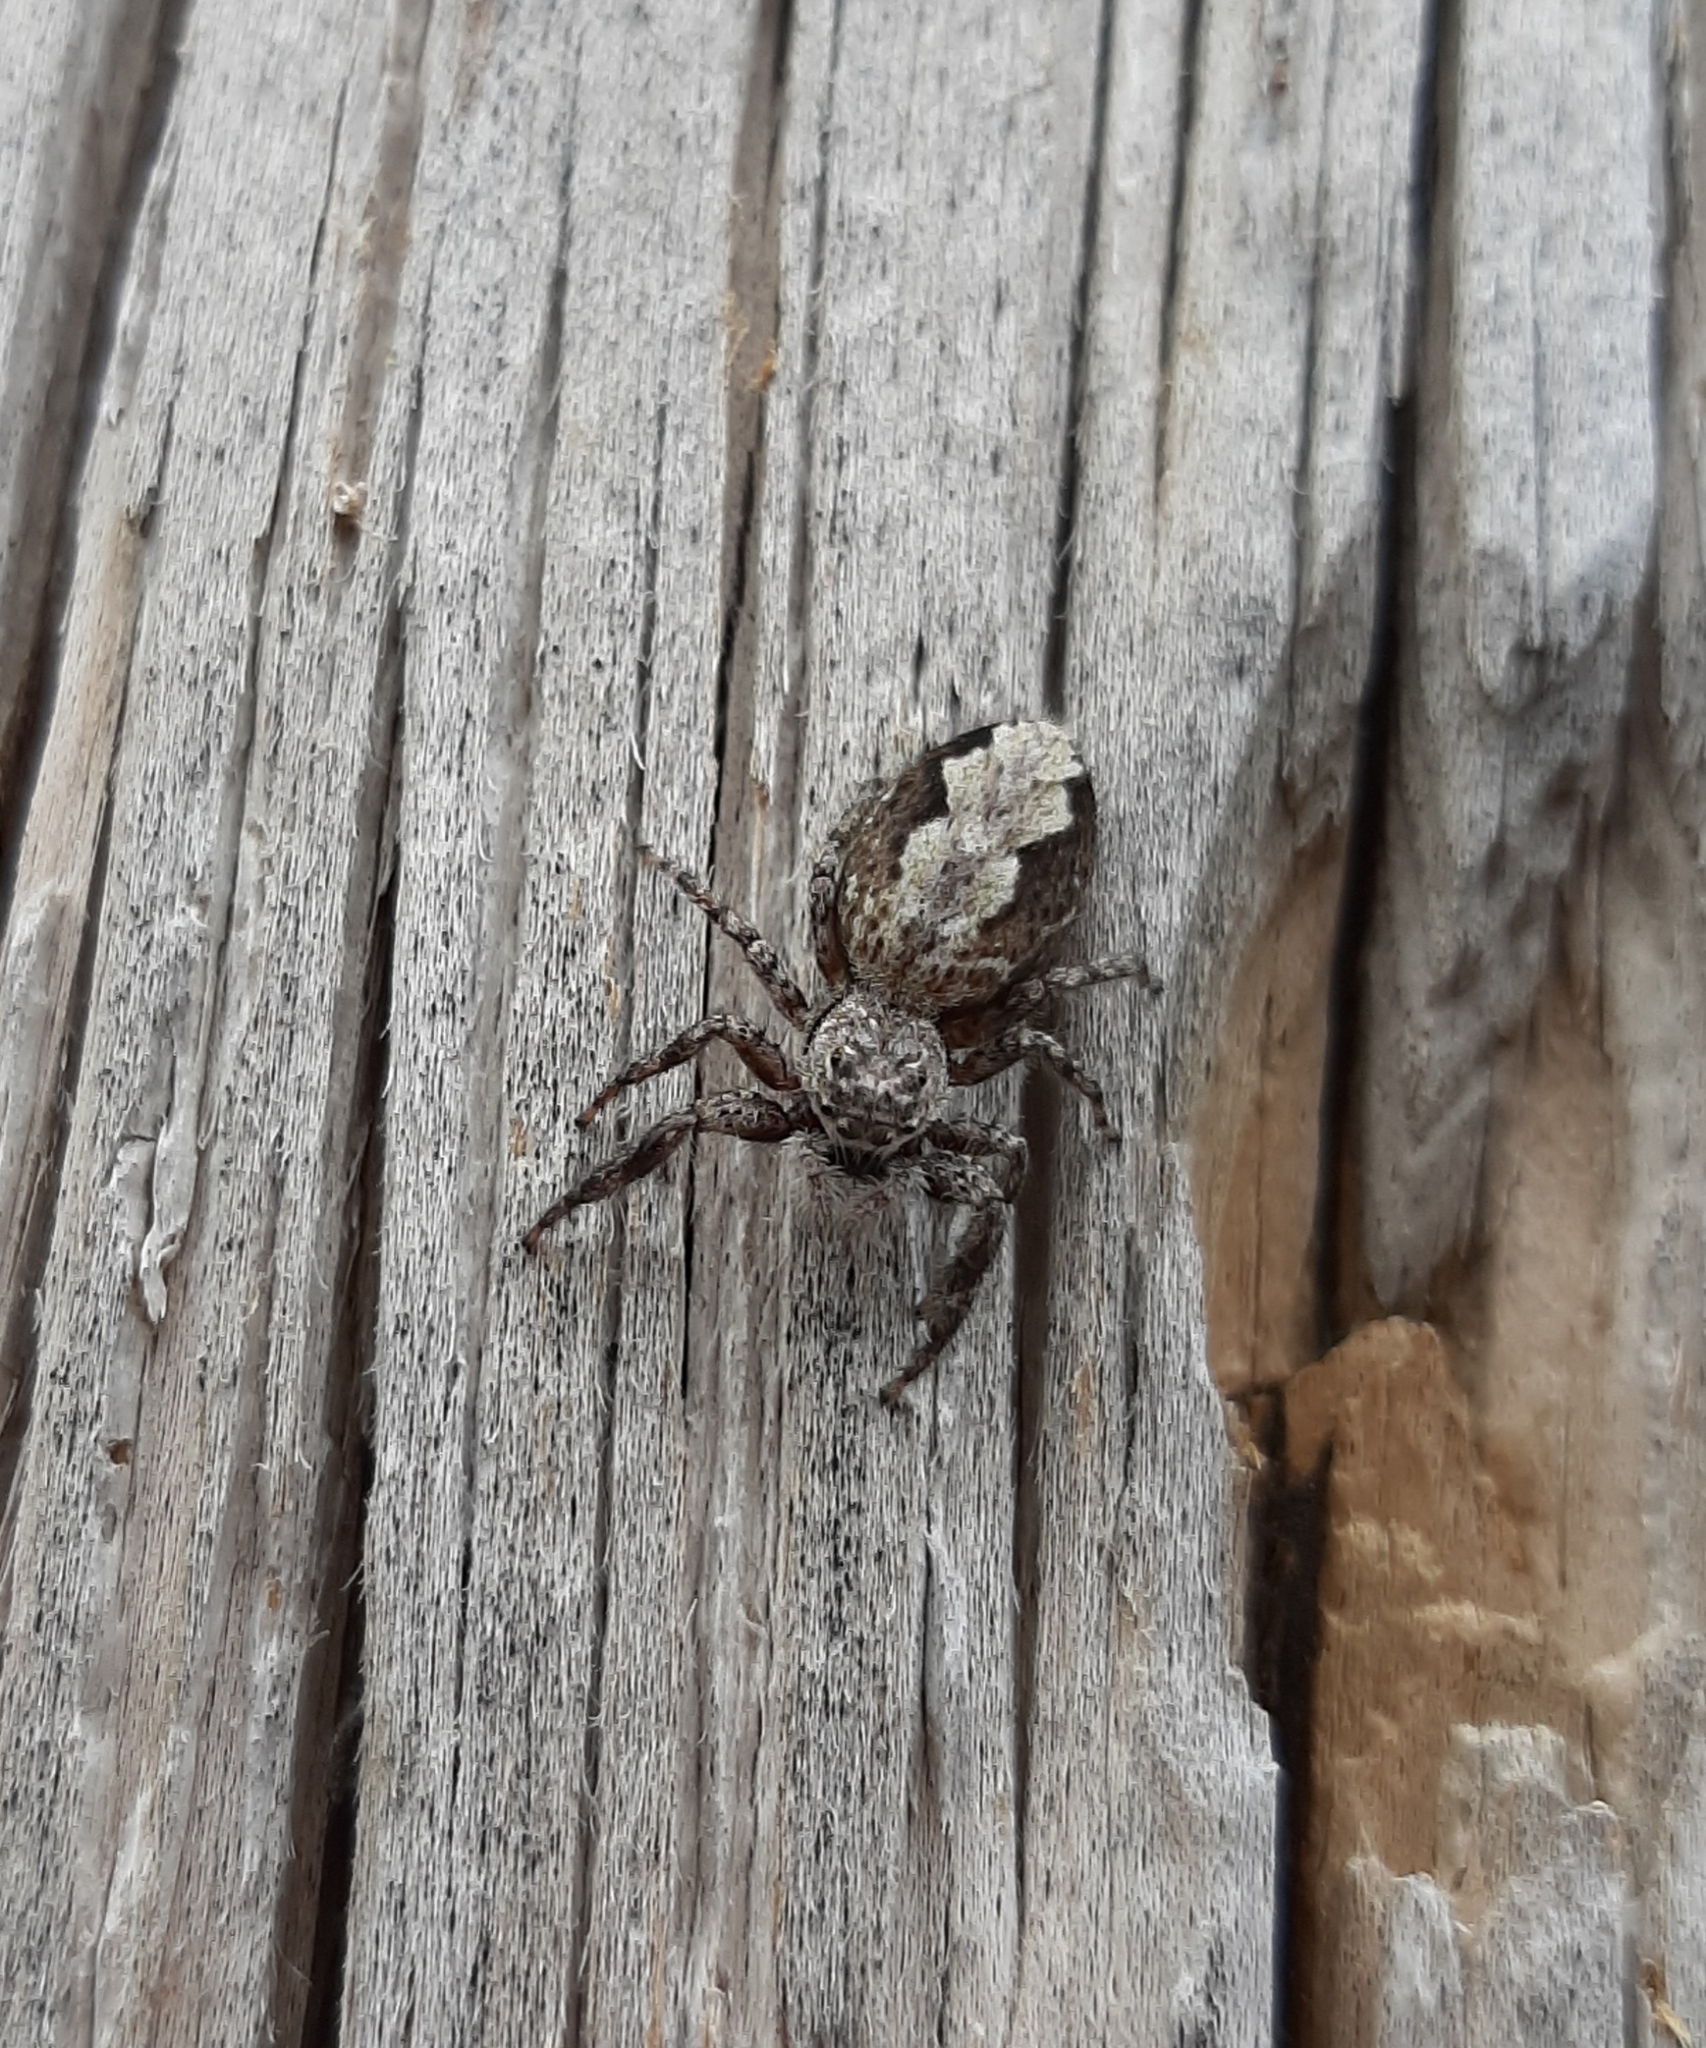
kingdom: Animalia
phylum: Arthropoda
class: Arachnida
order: Araneae
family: Salticidae
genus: Platycryptus
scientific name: Platycryptus undatus
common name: Tan jumping spider
